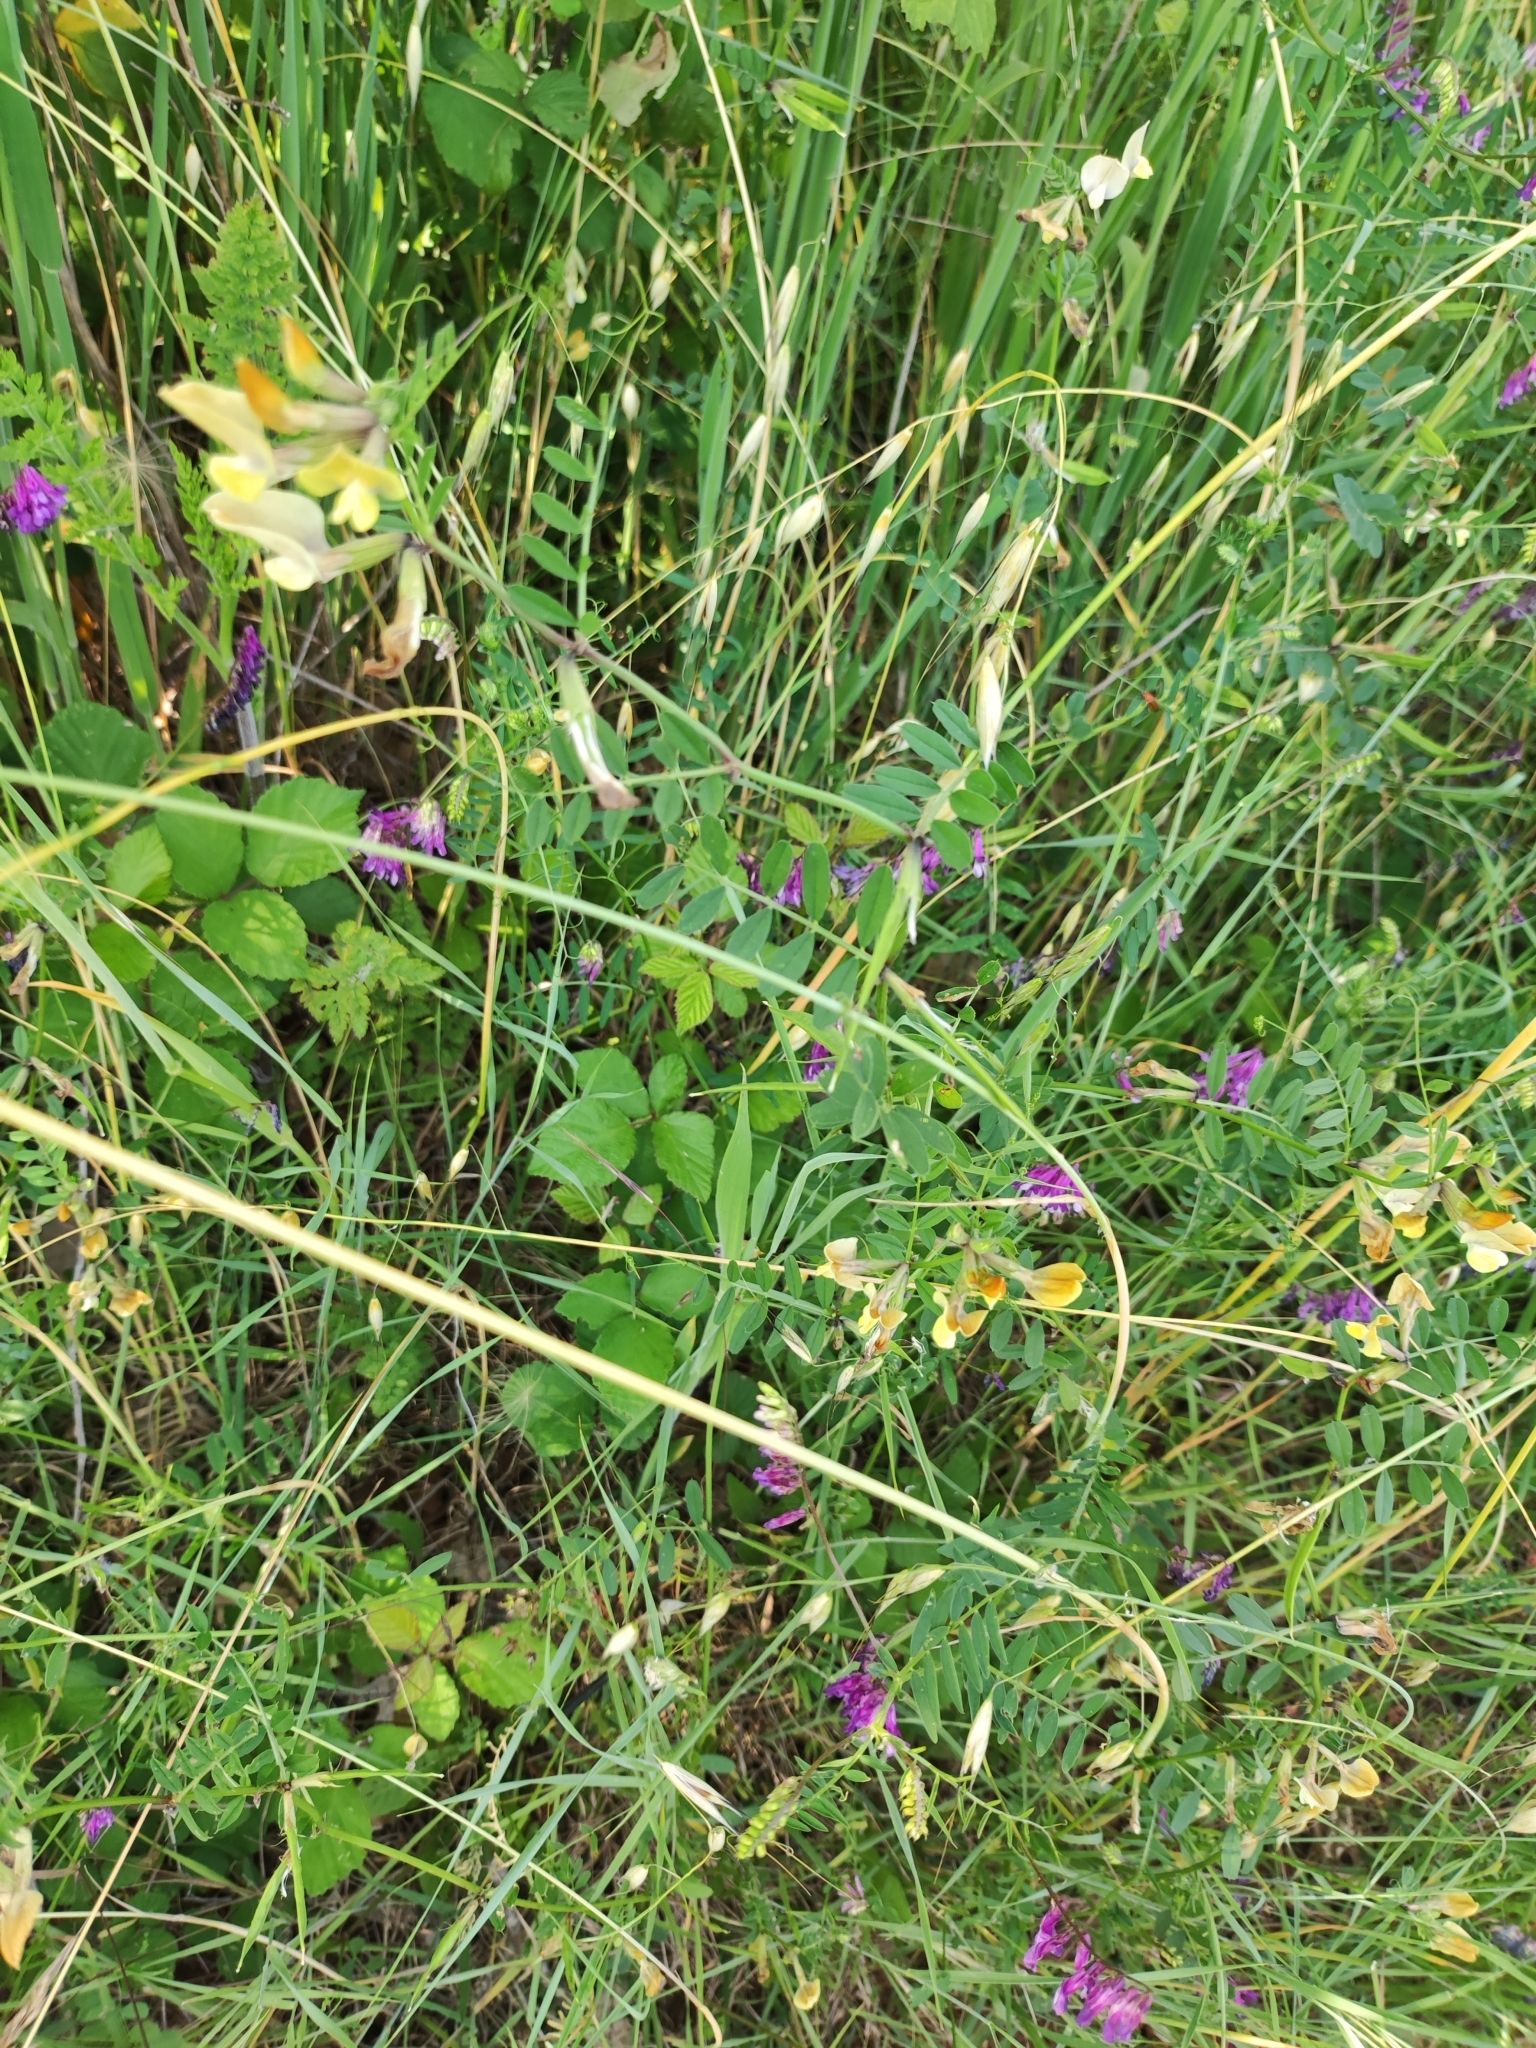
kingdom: Plantae
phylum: Tracheophyta
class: Magnoliopsida
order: Fabales
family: Fabaceae
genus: Vicia
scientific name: Vicia grandiflora
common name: Large yellow vetch
